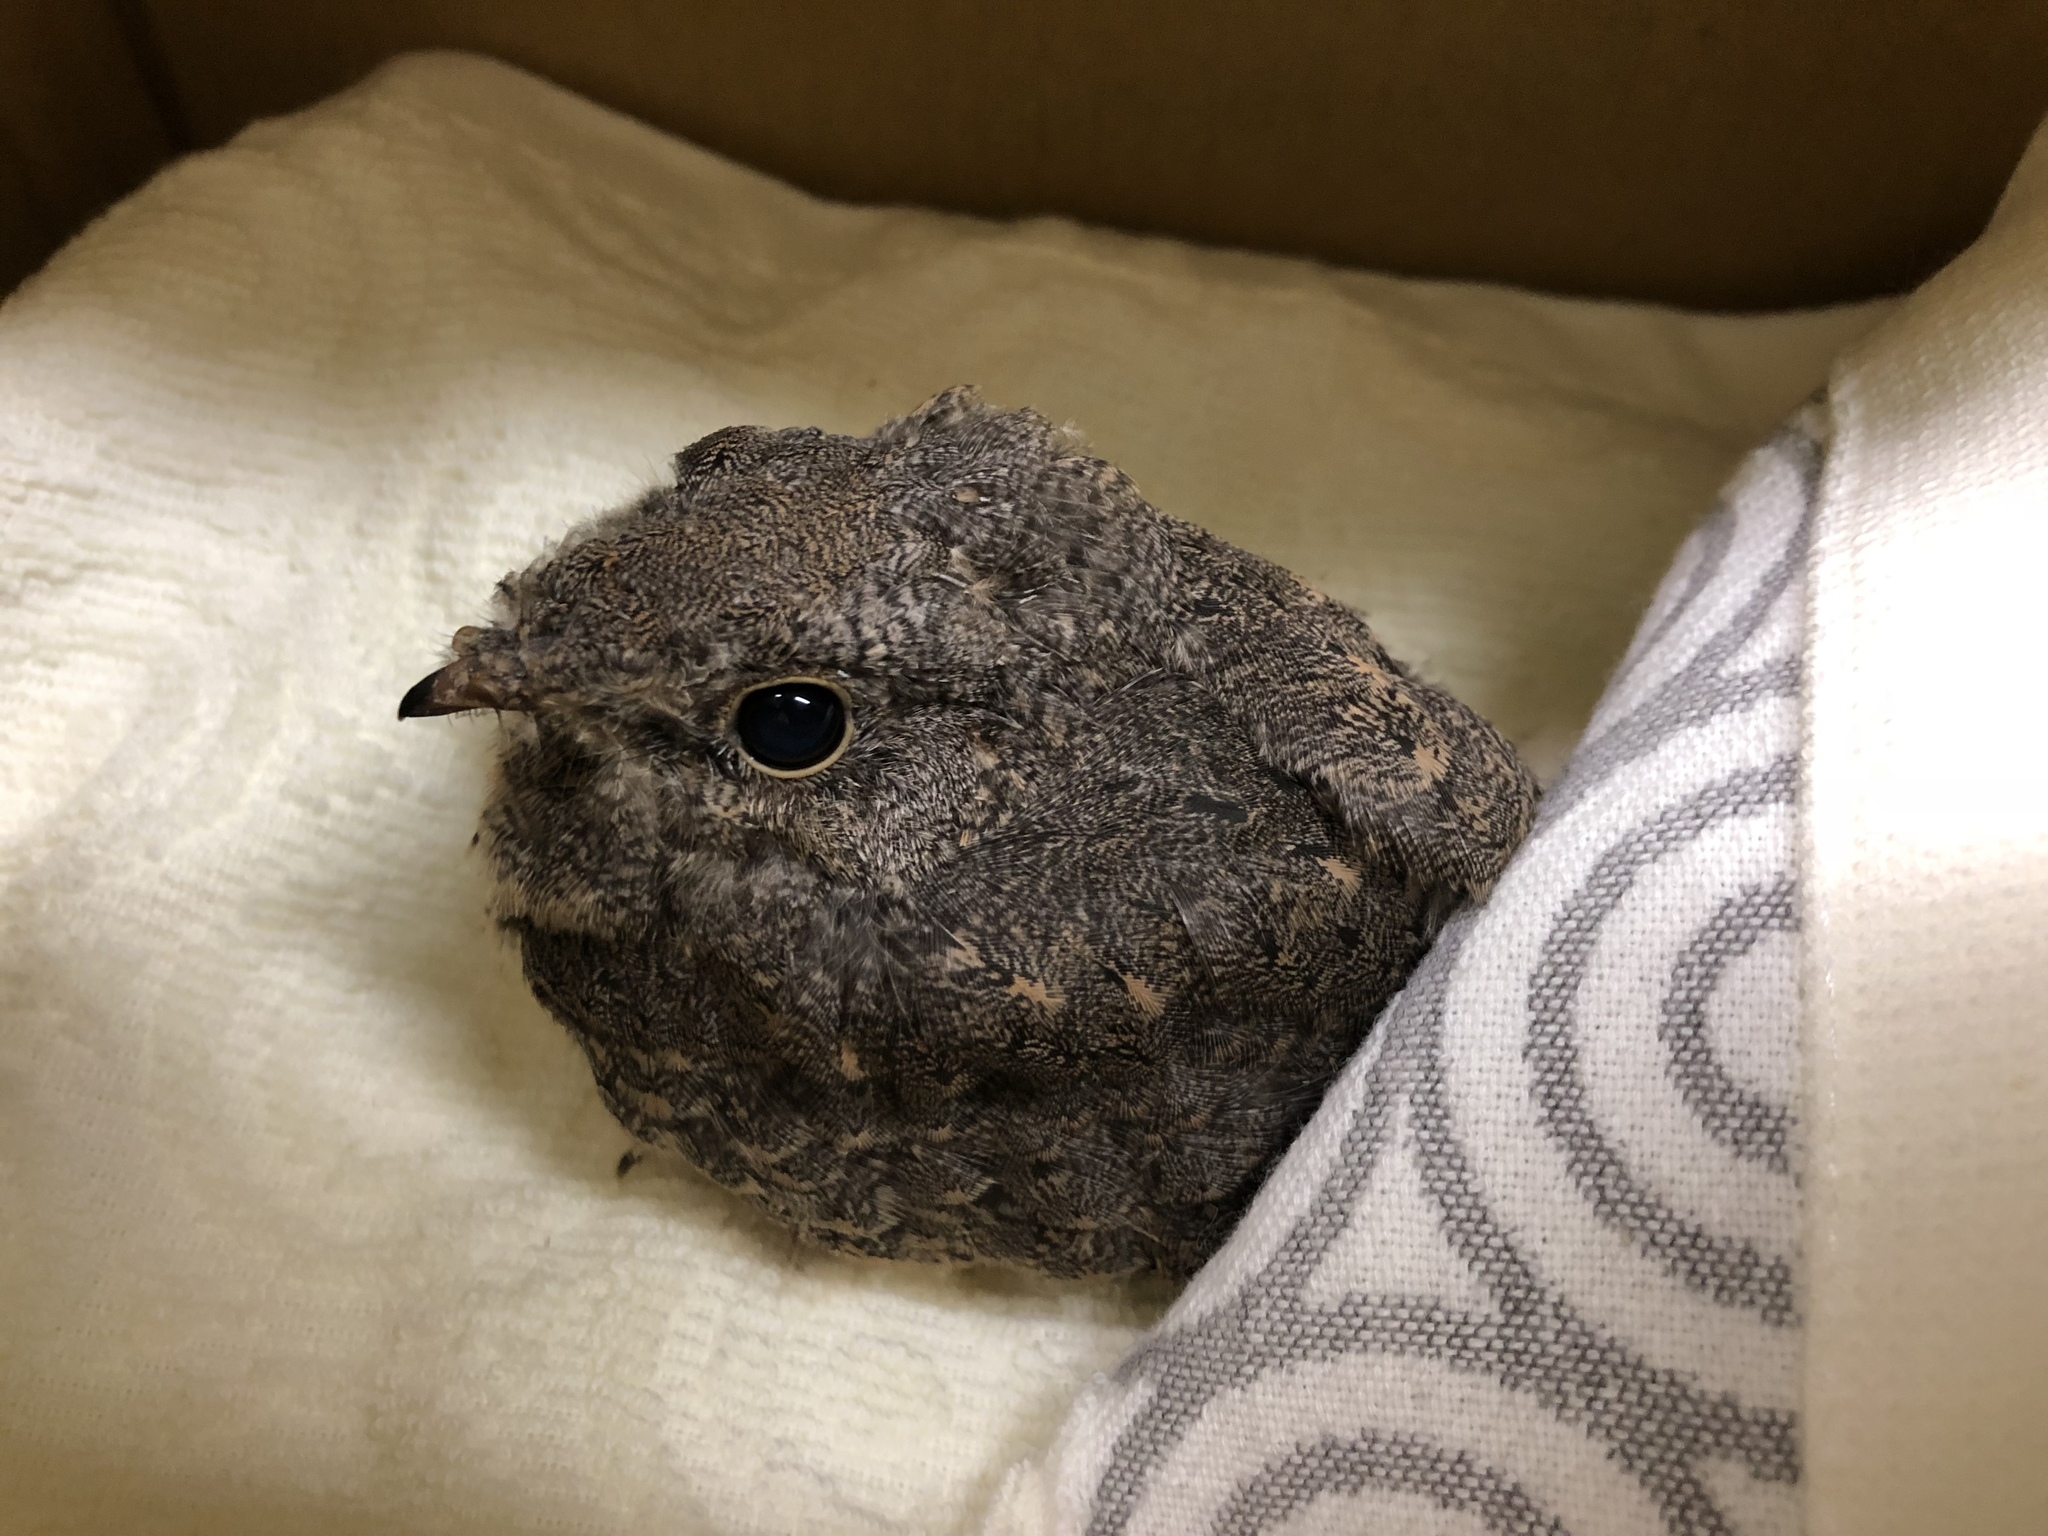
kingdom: Animalia
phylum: Chordata
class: Aves
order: Caprimulgiformes
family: Caprimulgidae
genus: Caprimulgus
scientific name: Caprimulgus affinis
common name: Savanna nightjar
